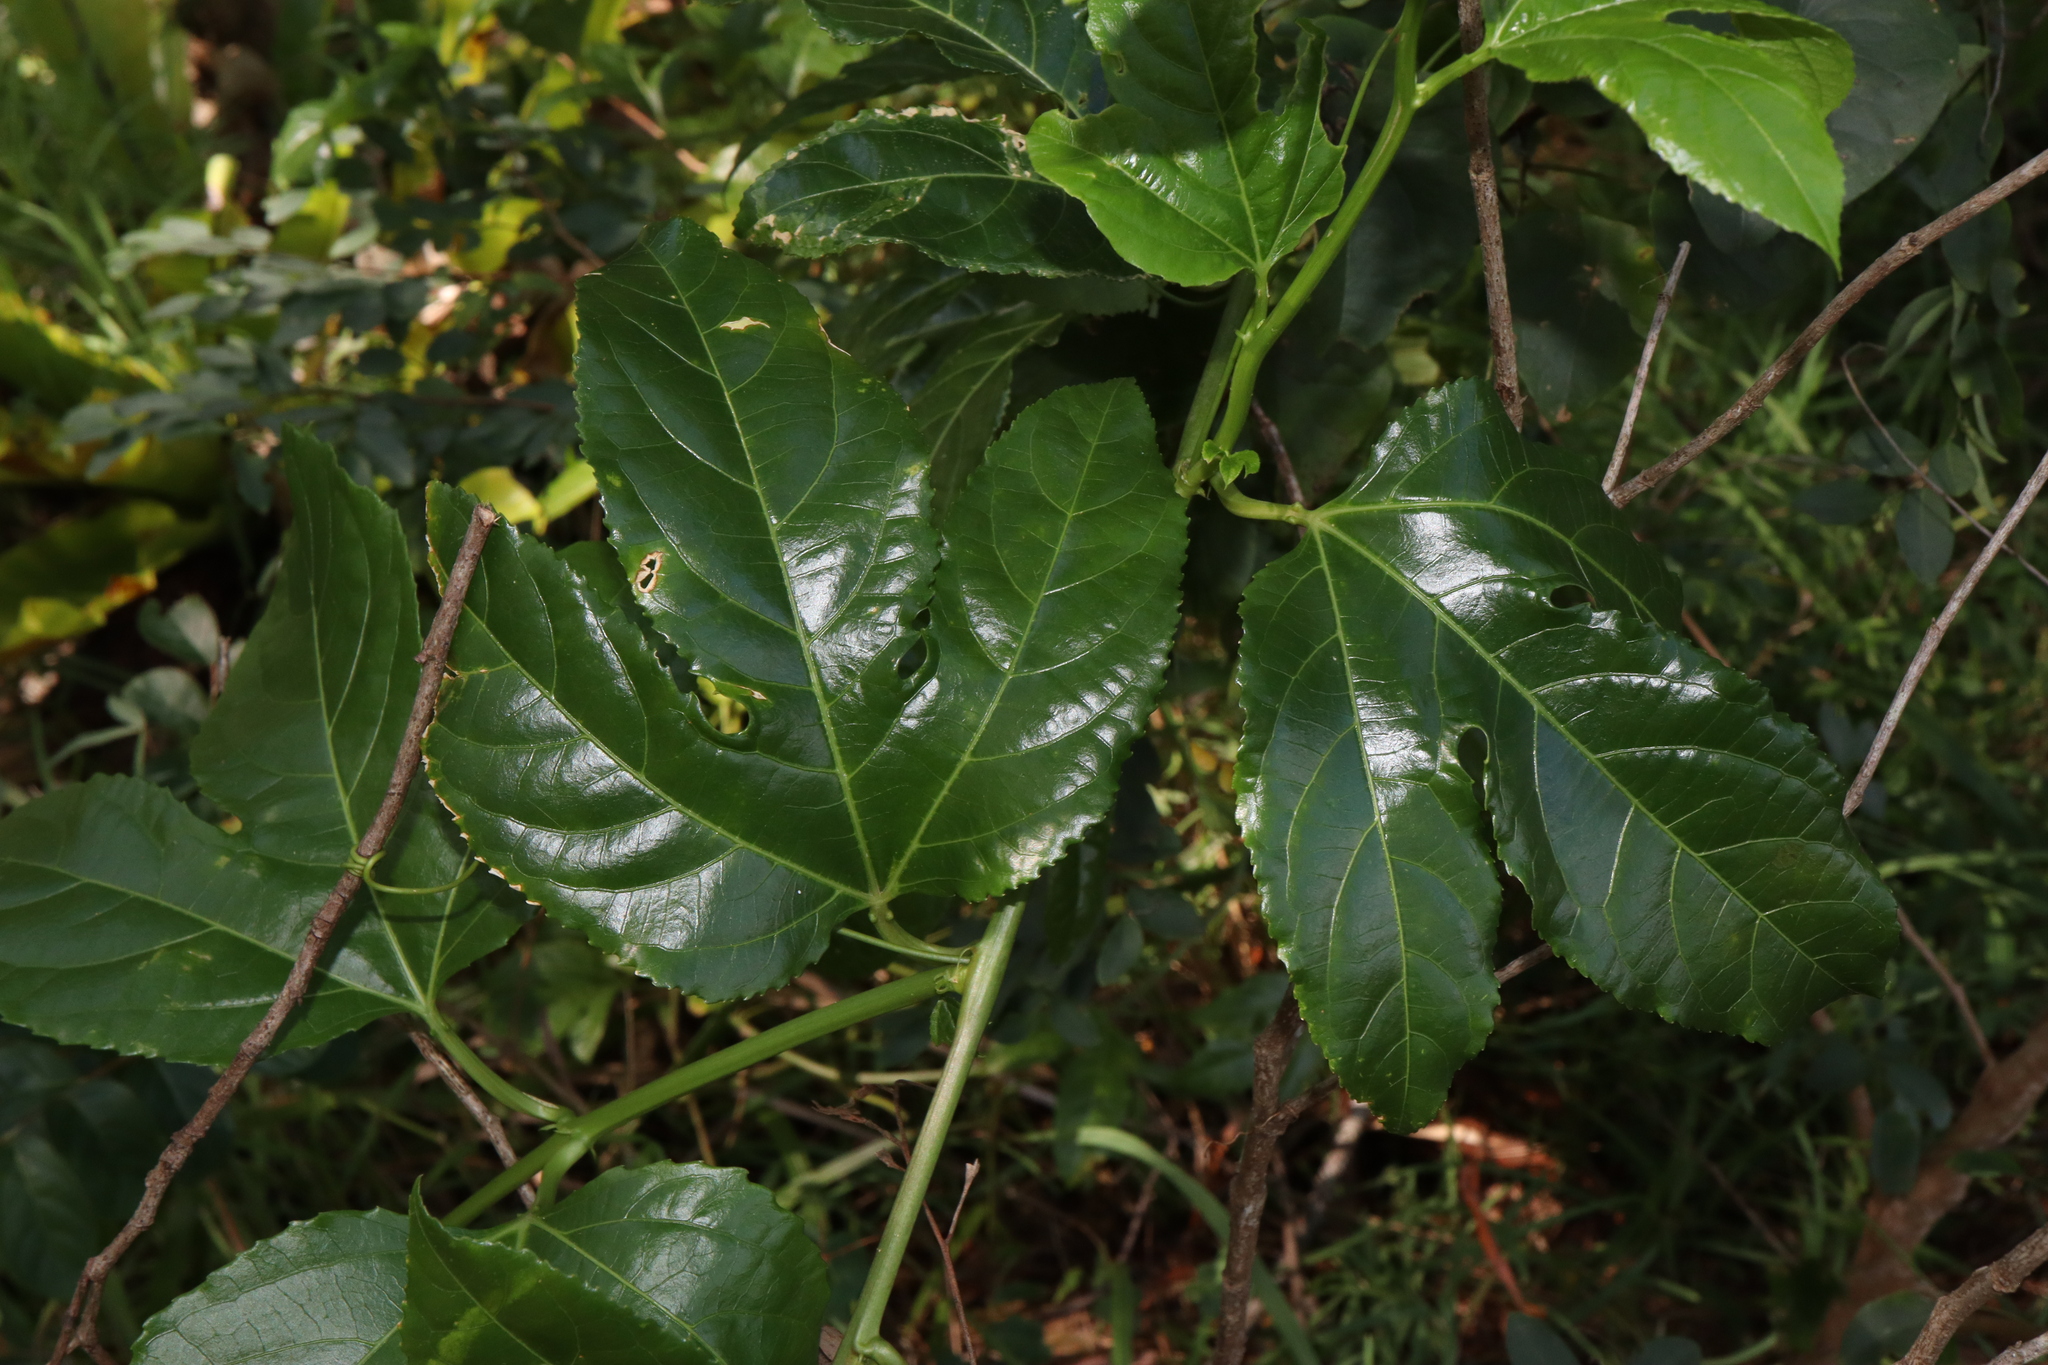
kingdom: Plantae
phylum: Tracheophyta
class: Magnoliopsida
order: Malpighiales
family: Passifloraceae
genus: Passiflora
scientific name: Passiflora edulis
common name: Purple granadilla
